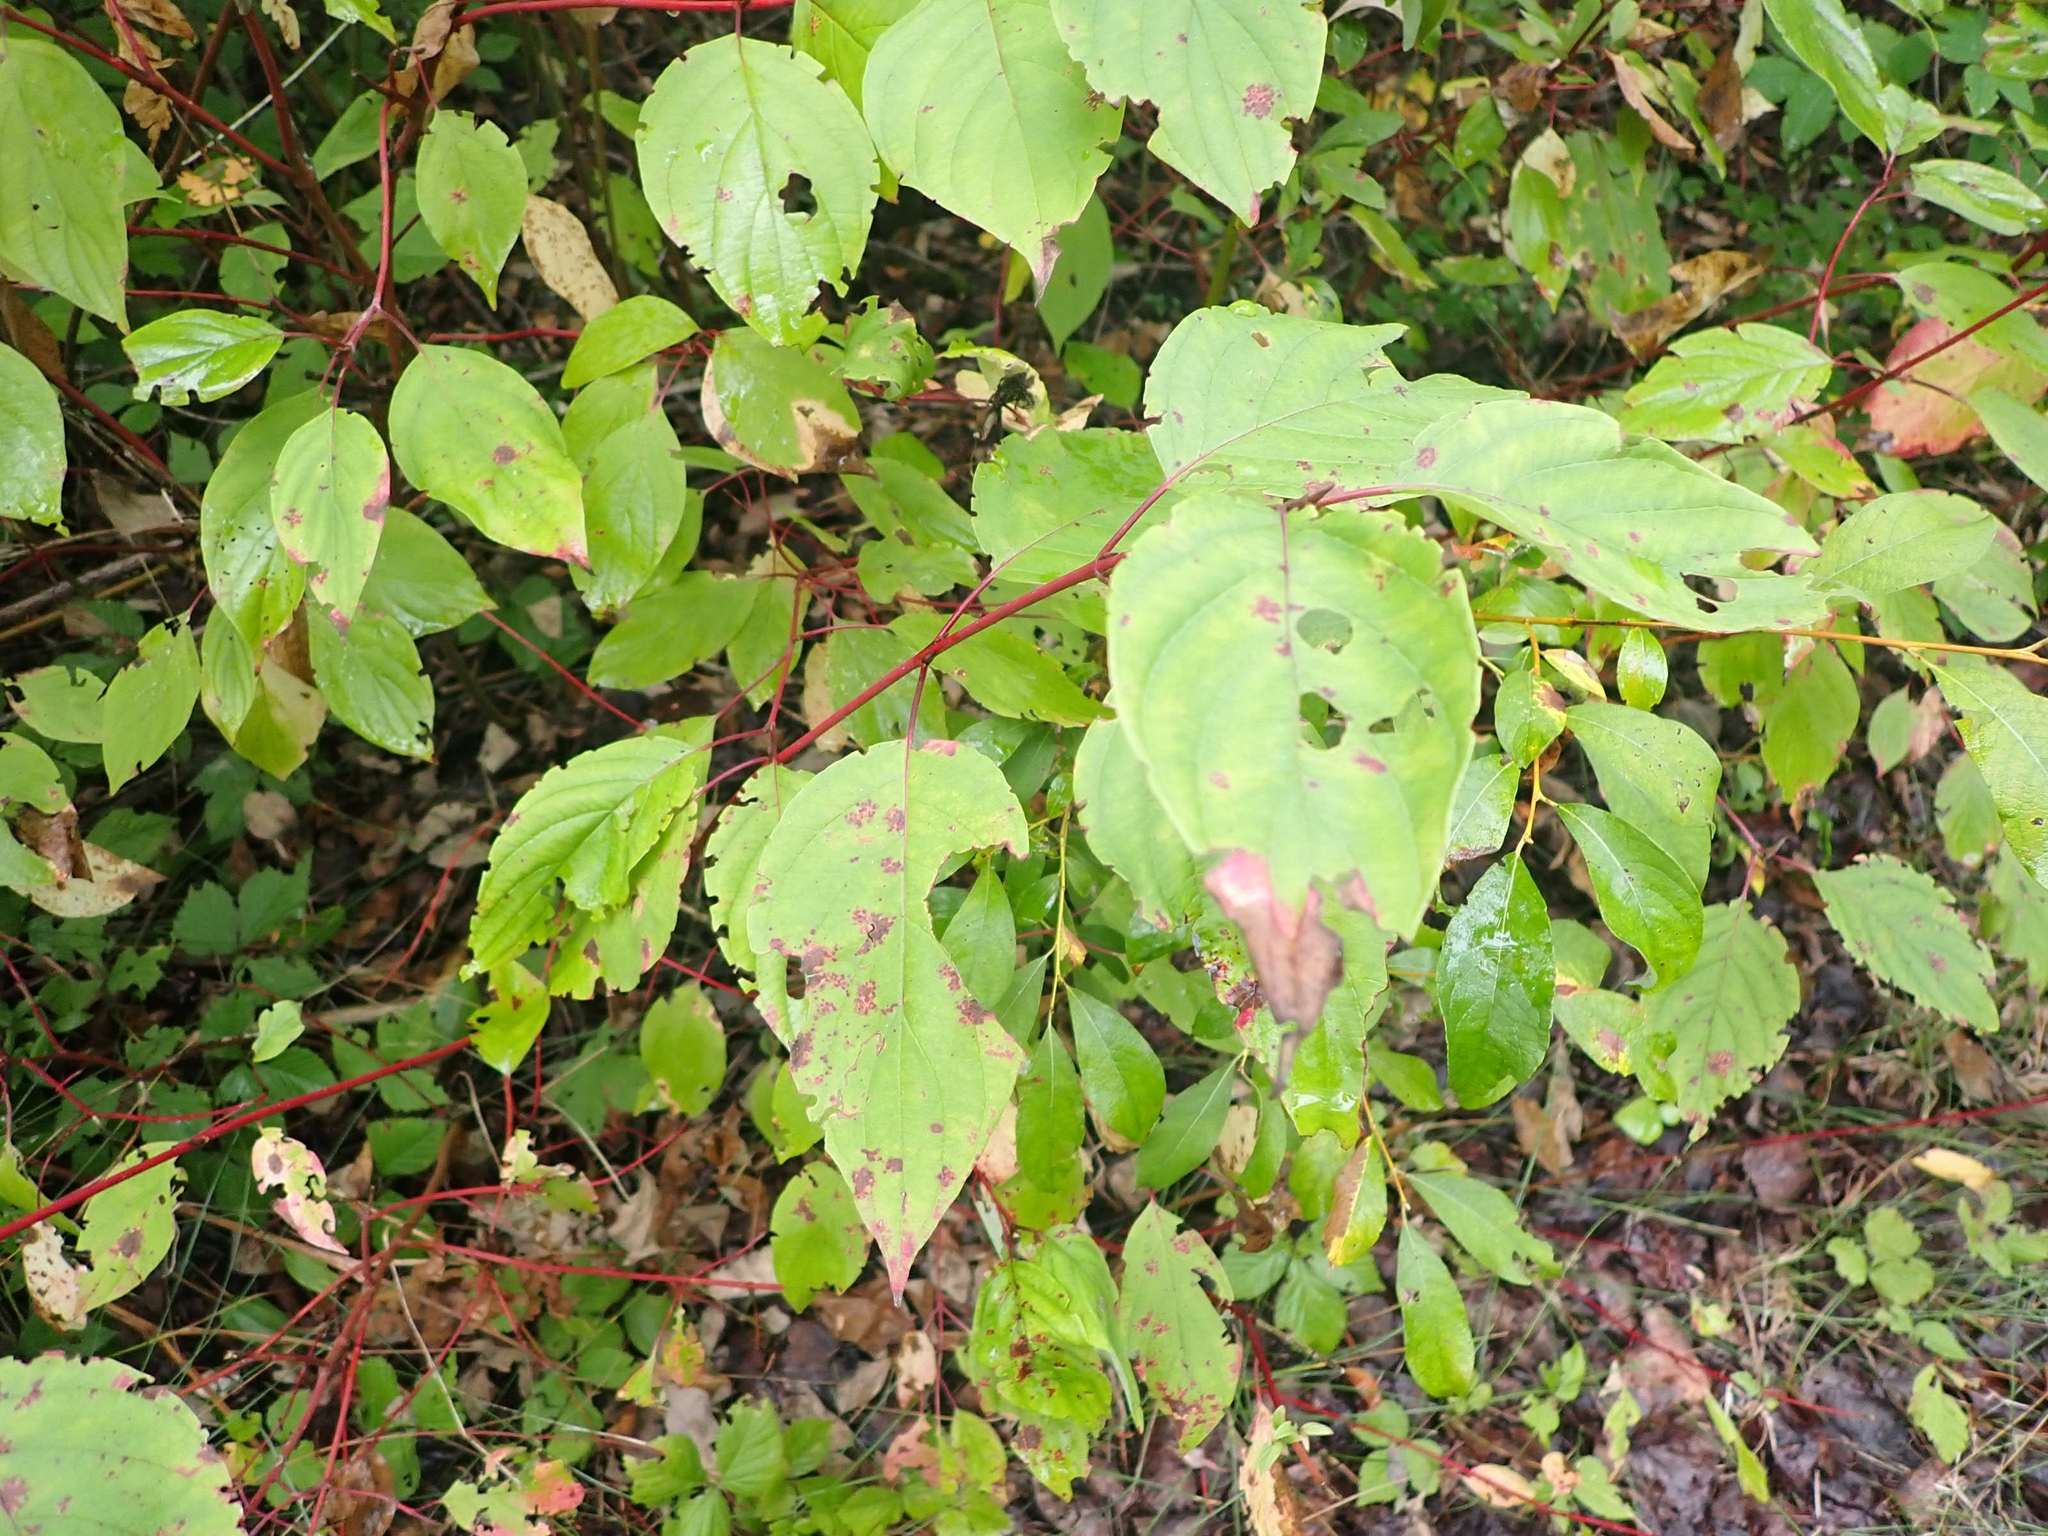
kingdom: Plantae
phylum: Tracheophyta
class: Magnoliopsida
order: Cornales
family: Cornaceae
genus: Cornus
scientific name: Cornus sericea
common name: Red-osier dogwood
